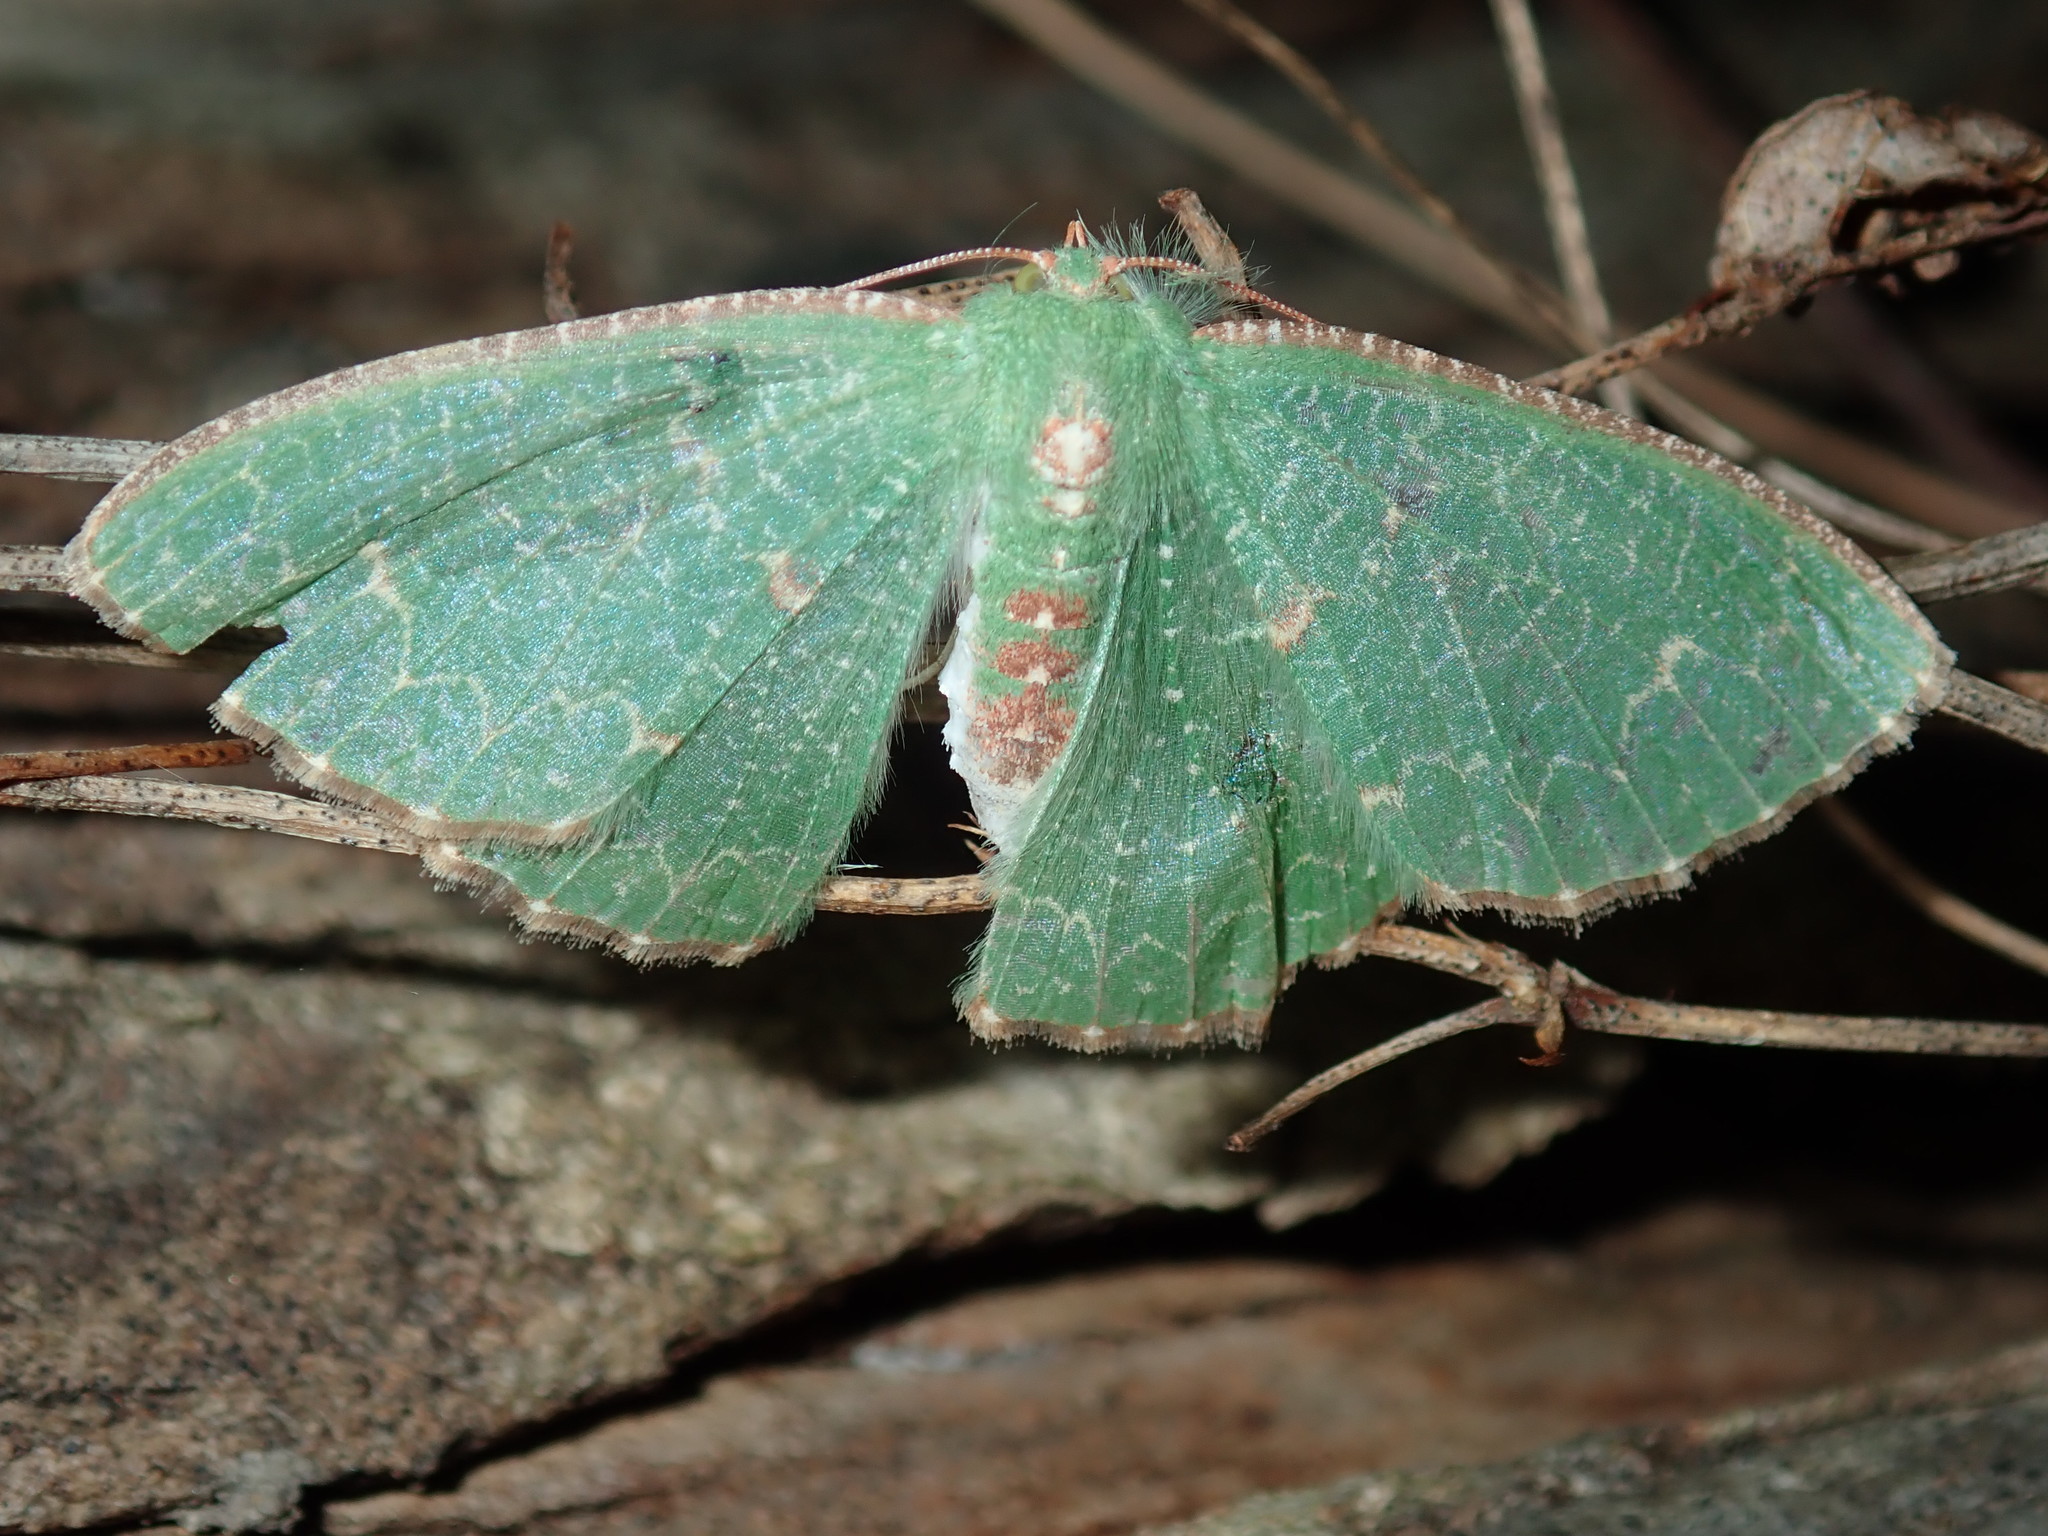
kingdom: Animalia
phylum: Arthropoda
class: Insecta
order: Lepidoptera
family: Geometridae
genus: Eucyclodes
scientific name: Eucyclodes metaspila
